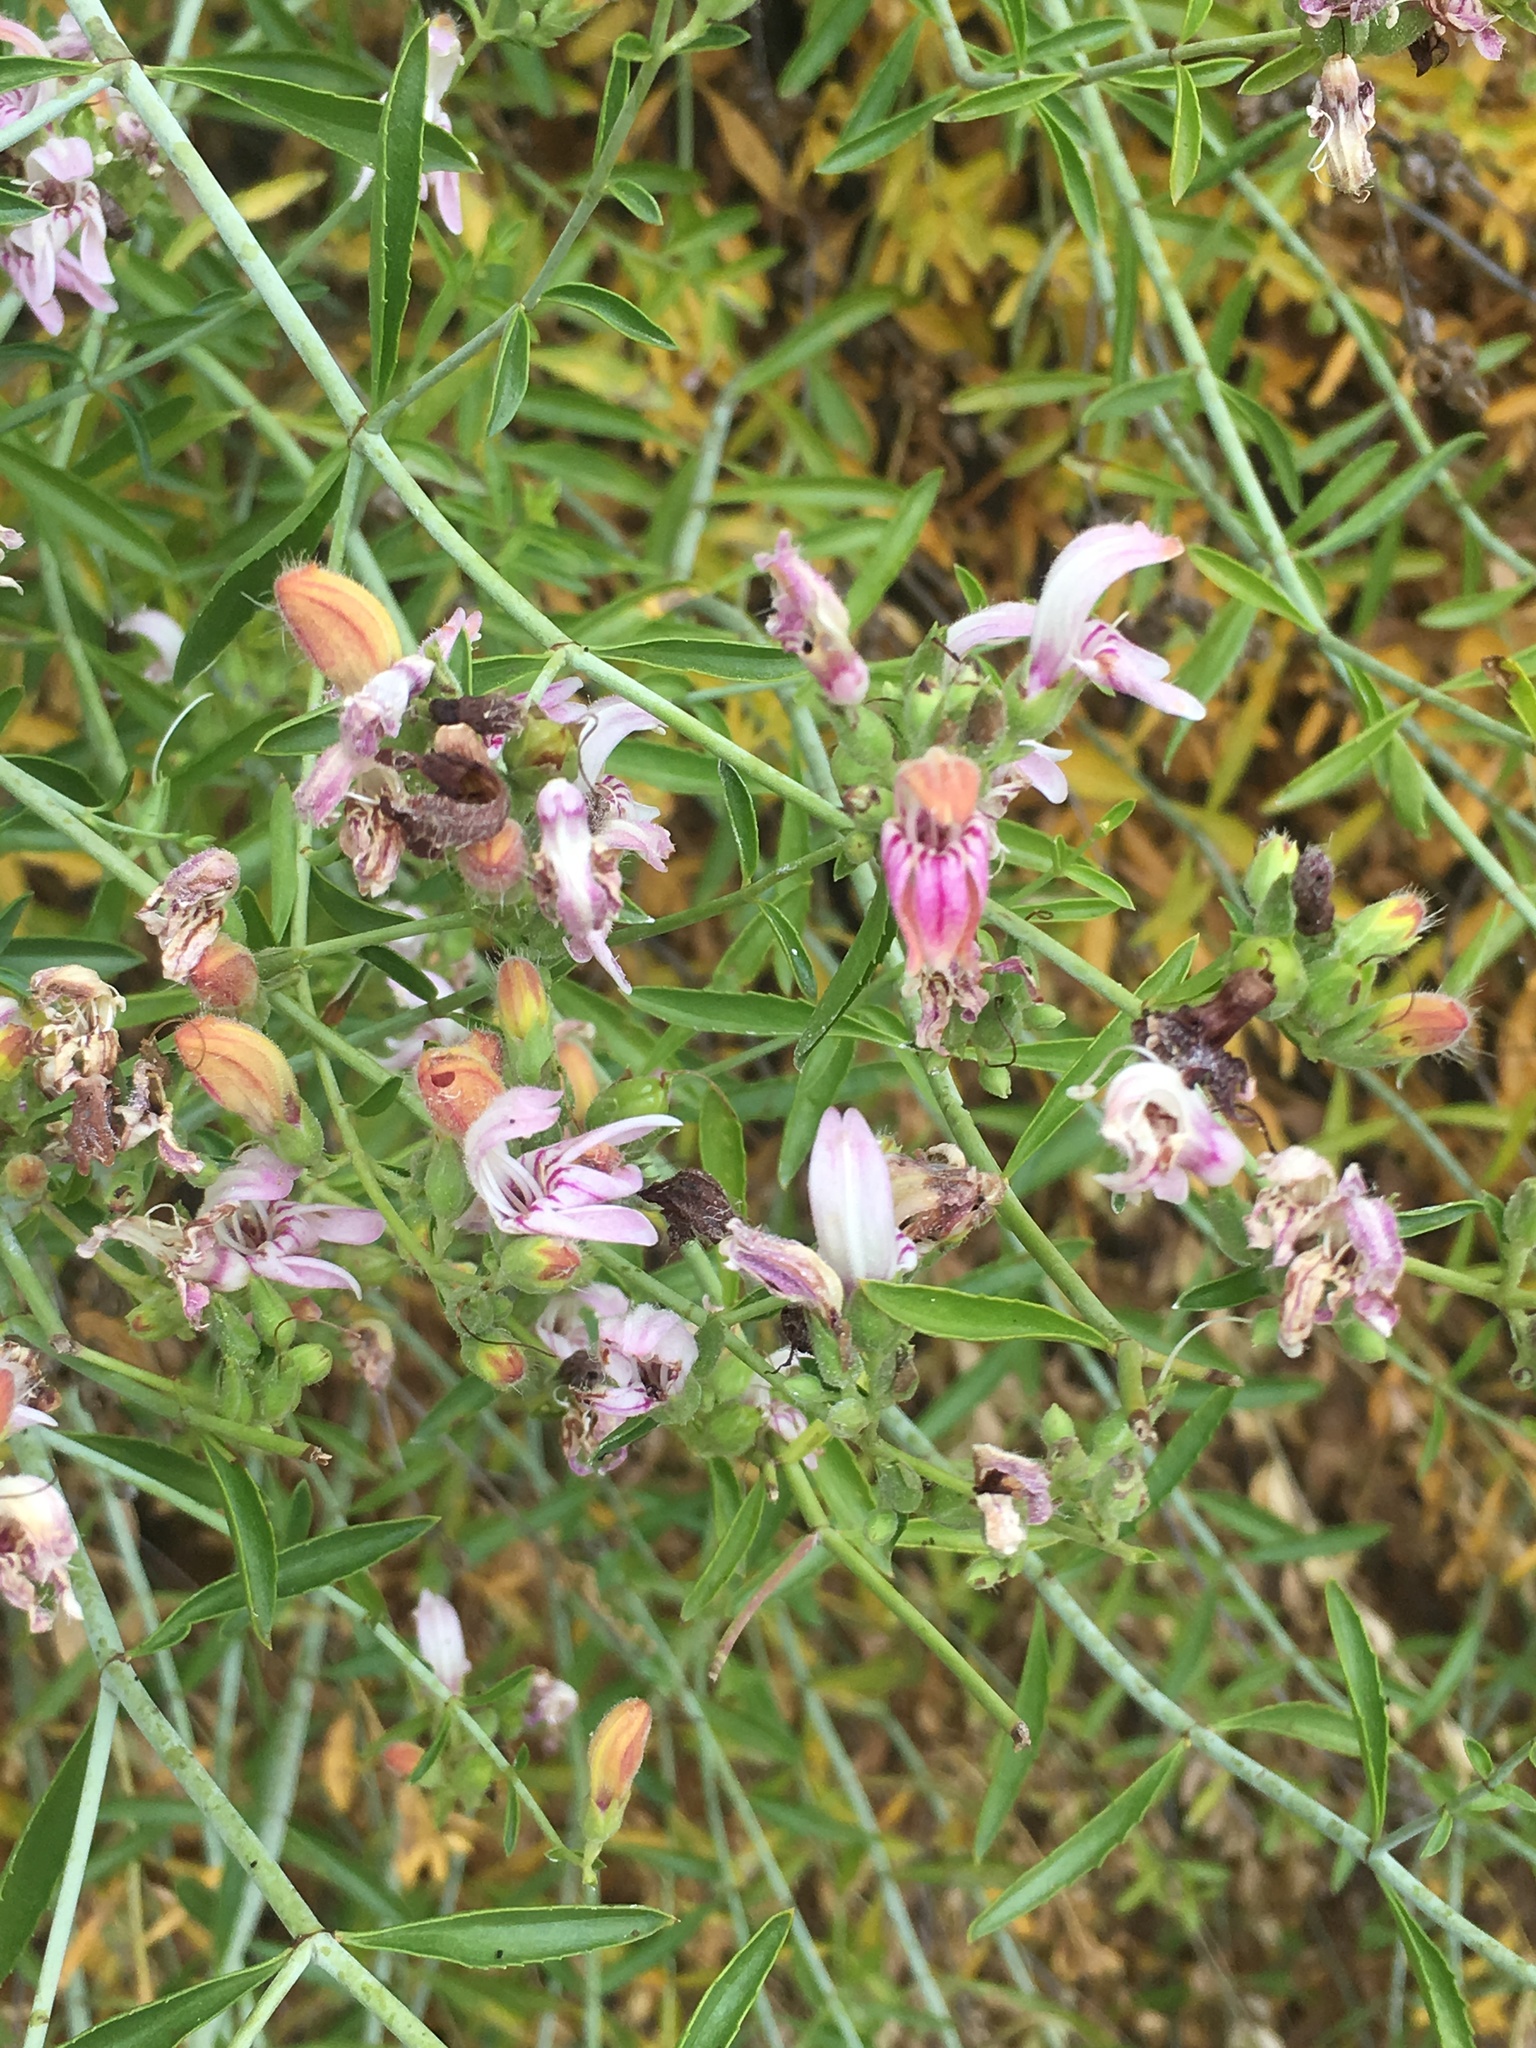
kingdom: Plantae
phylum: Tracheophyta
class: Magnoliopsida
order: Lamiales
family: Plantaginaceae
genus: Keckiella
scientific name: Keckiella breviflora
